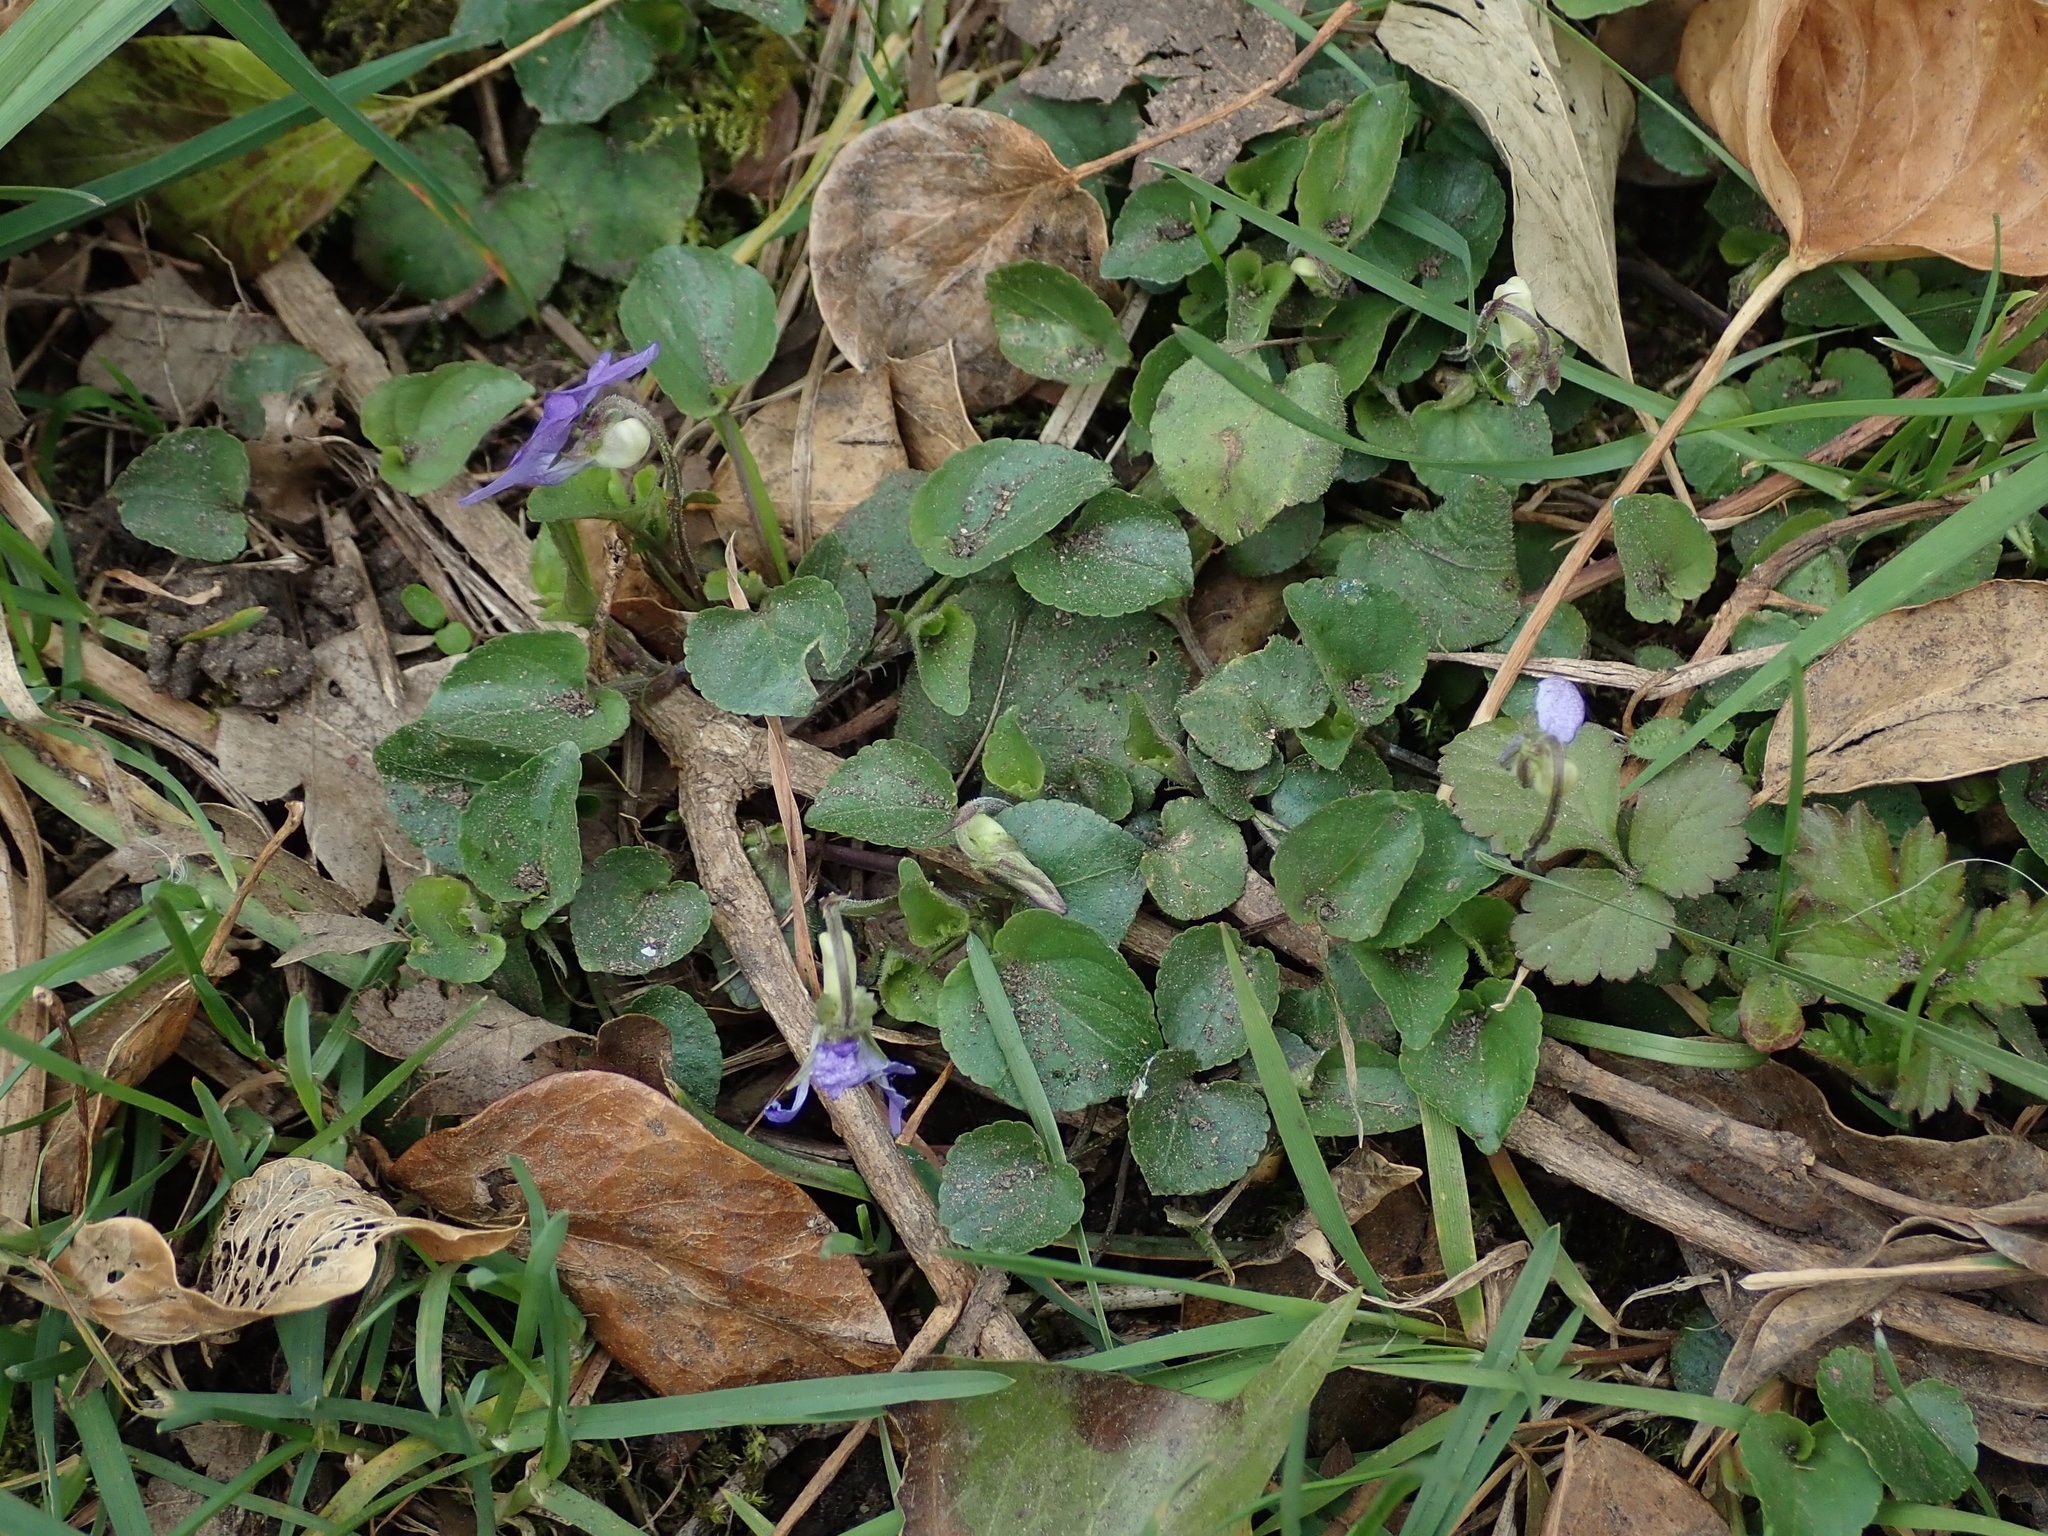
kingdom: Plantae
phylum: Tracheophyta
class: Magnoliopsida
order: Malpighiales
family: Violaceae
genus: Viola
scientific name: Viola riviniana
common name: Common dog-violet
